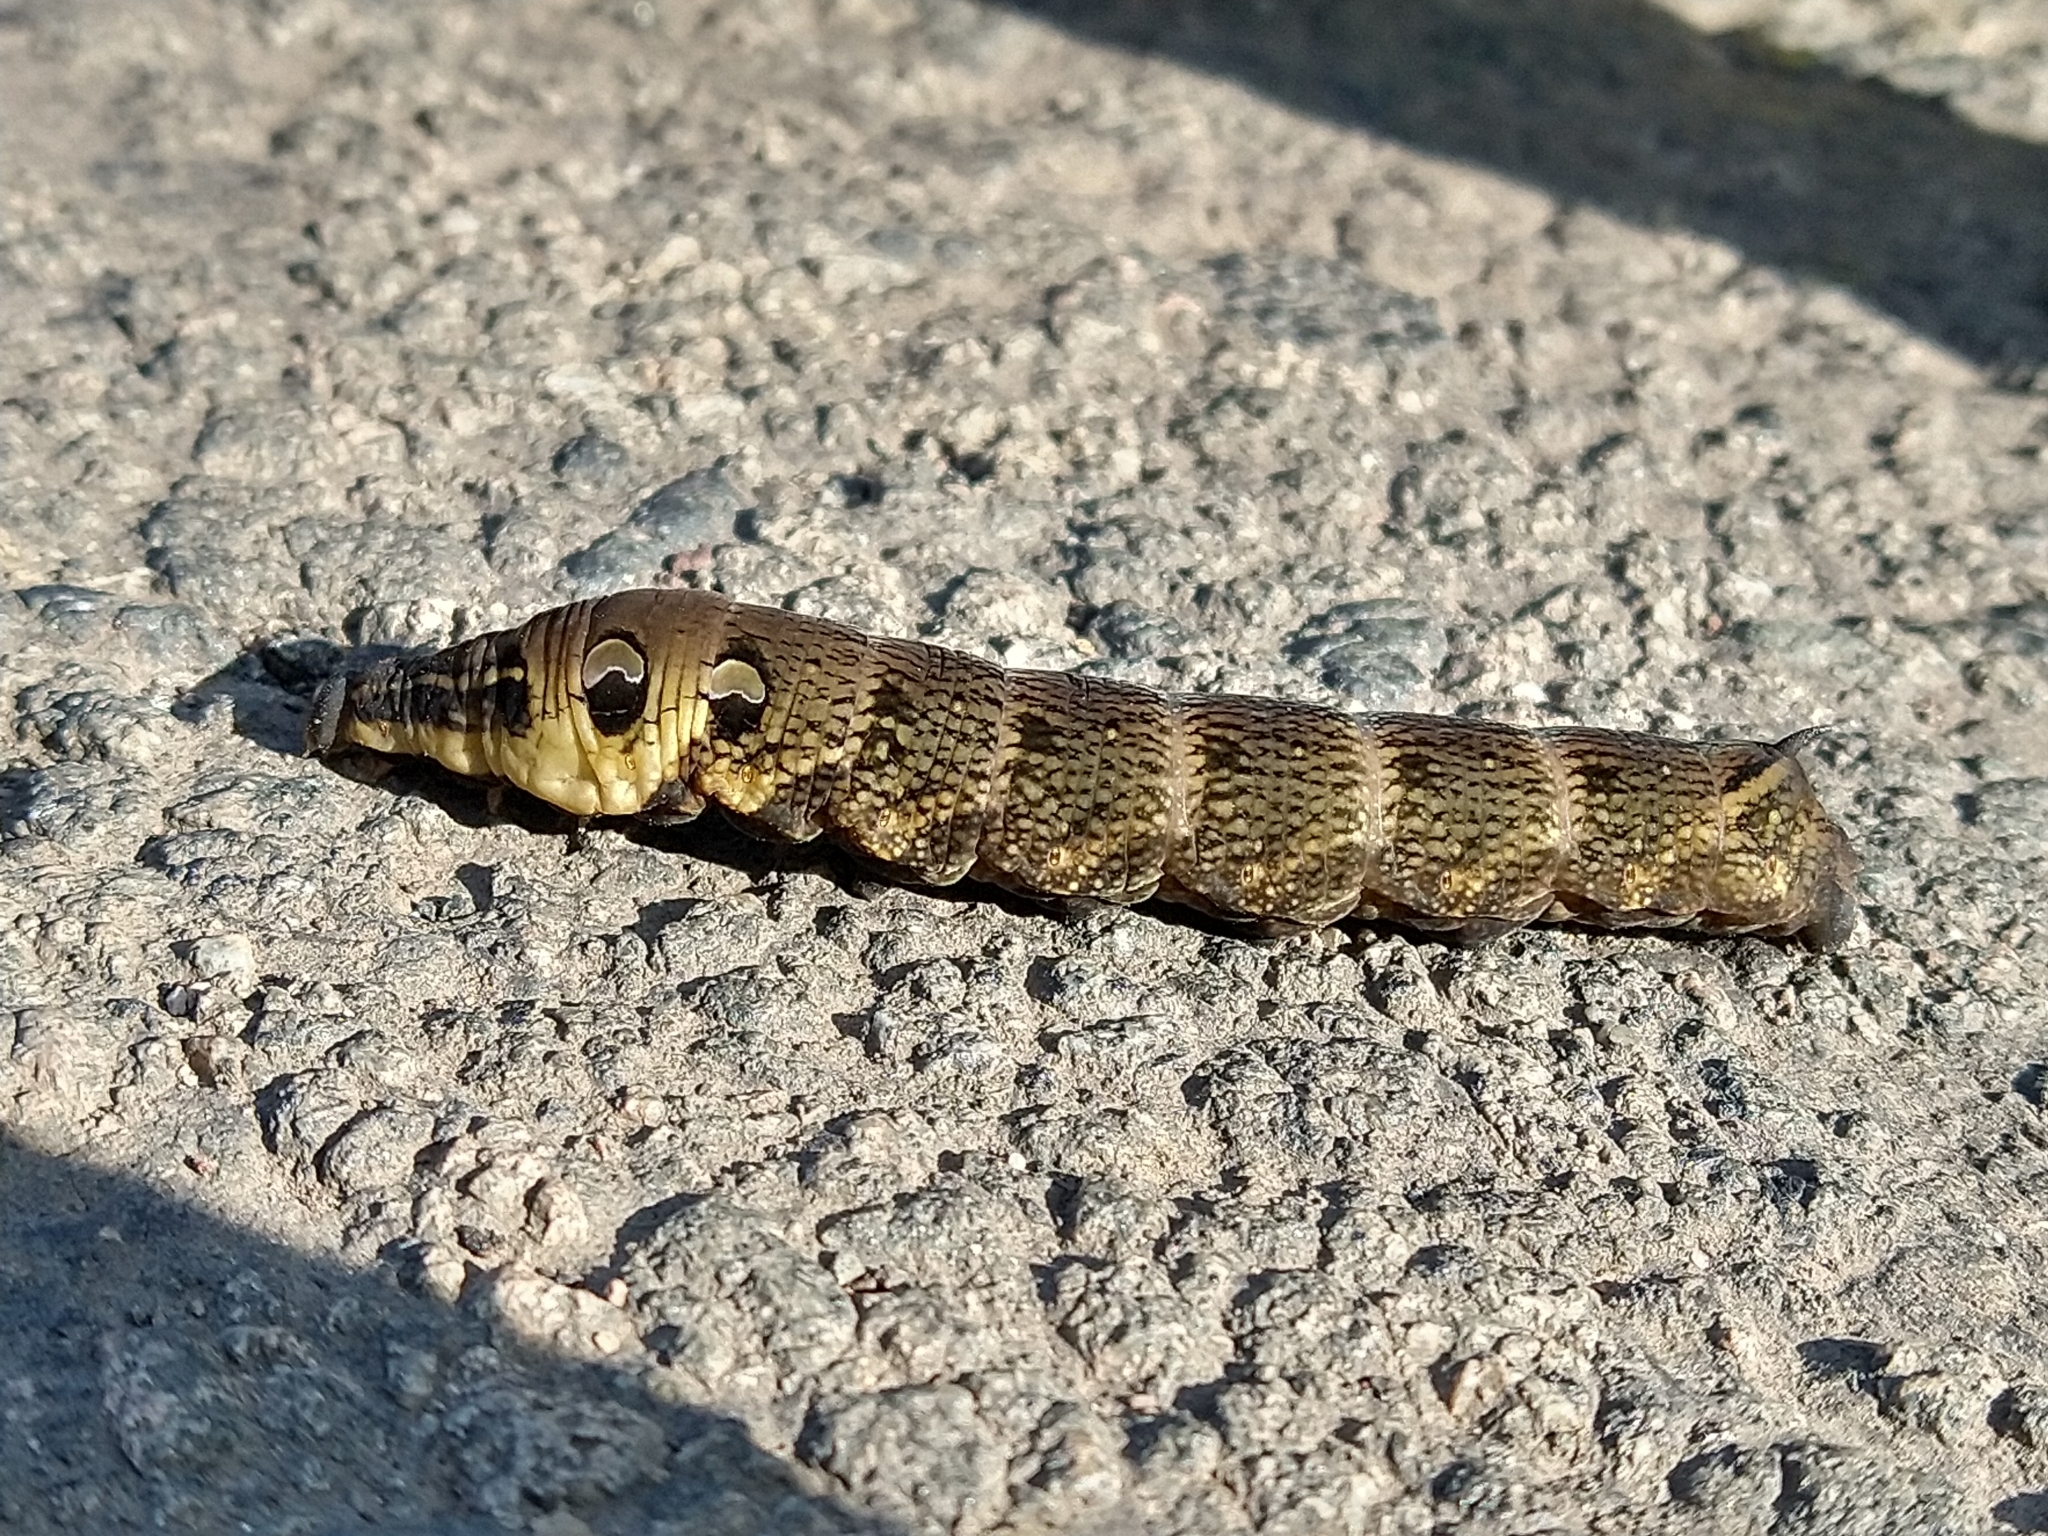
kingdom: Animalia
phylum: Arthropoda
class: Insecta
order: Lepidoptera
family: Sphingidae
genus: Deilephila
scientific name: Deilephila elpenor
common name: Elephant hawk-moth
